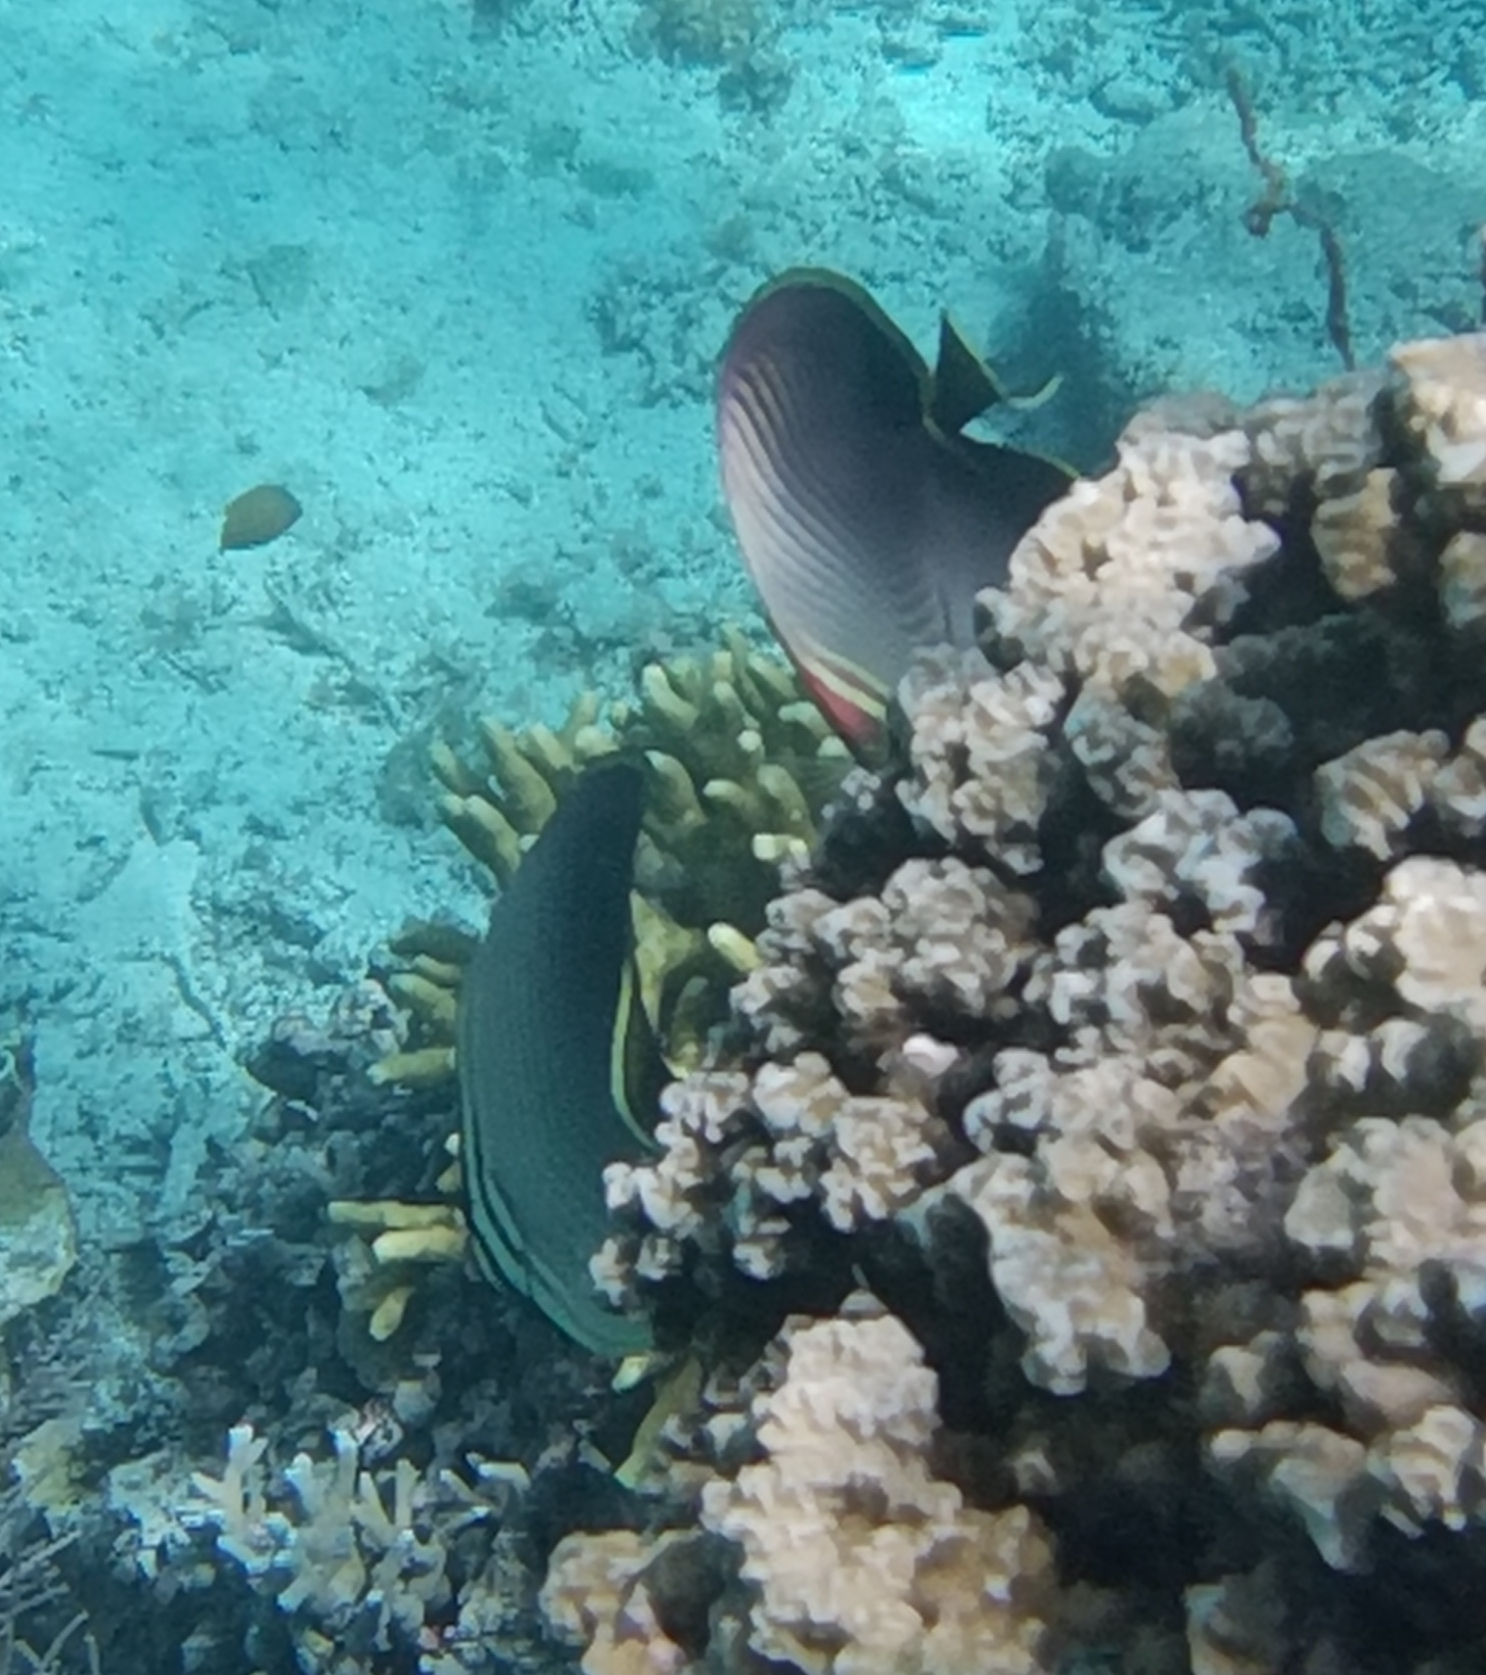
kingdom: Animalia
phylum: Chordata
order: Perciformes
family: Chaetodontidae
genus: Chaetodon
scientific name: Chaetodon baronessa
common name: Triangular butterflyfish
